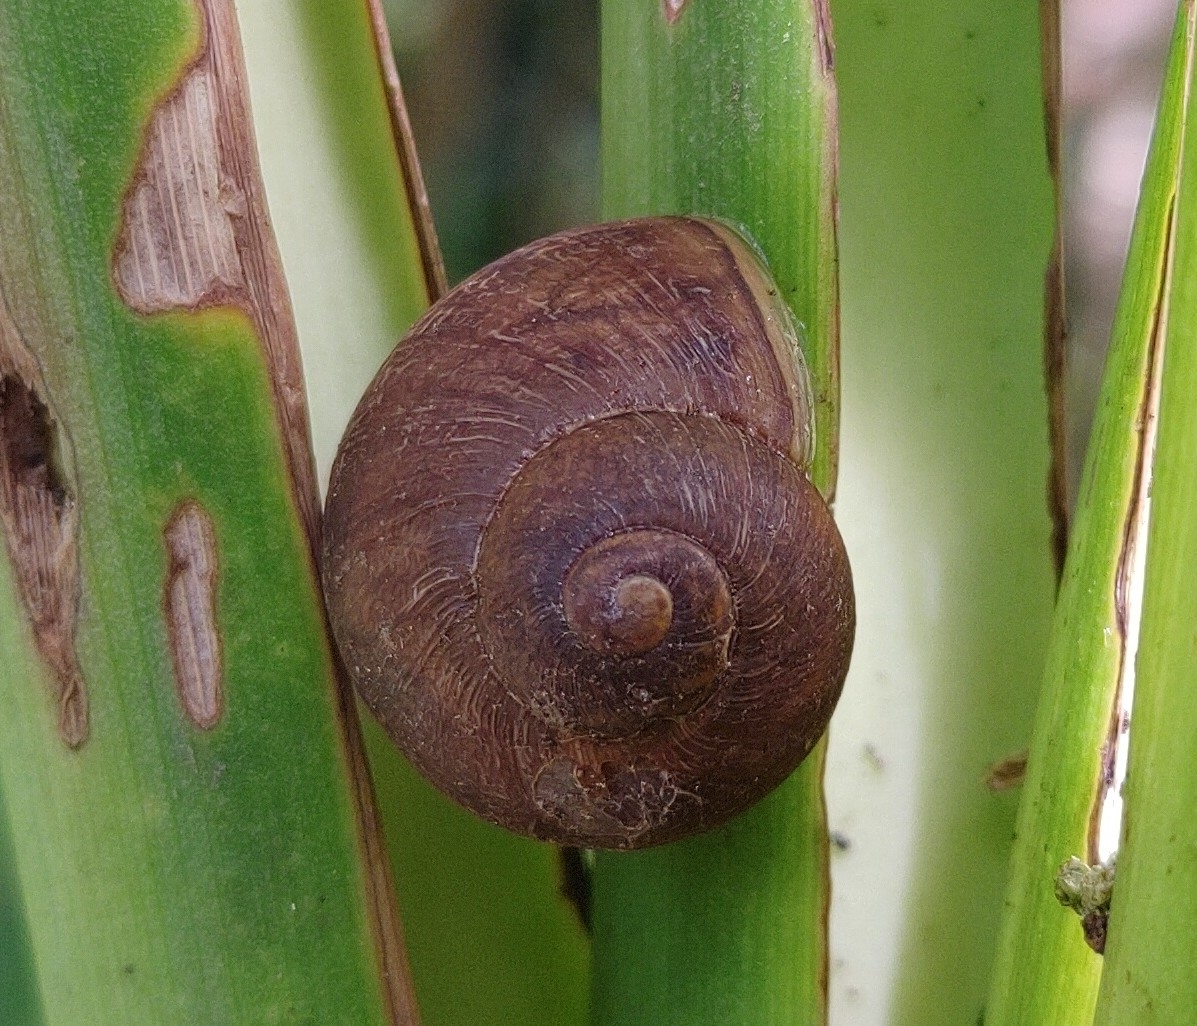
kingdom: Animalia
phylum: Mollusca
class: Gastropoda
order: Stylommatophora
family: Helicidae
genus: Cornu
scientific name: Cornu aspersum
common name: Brown garden snail
